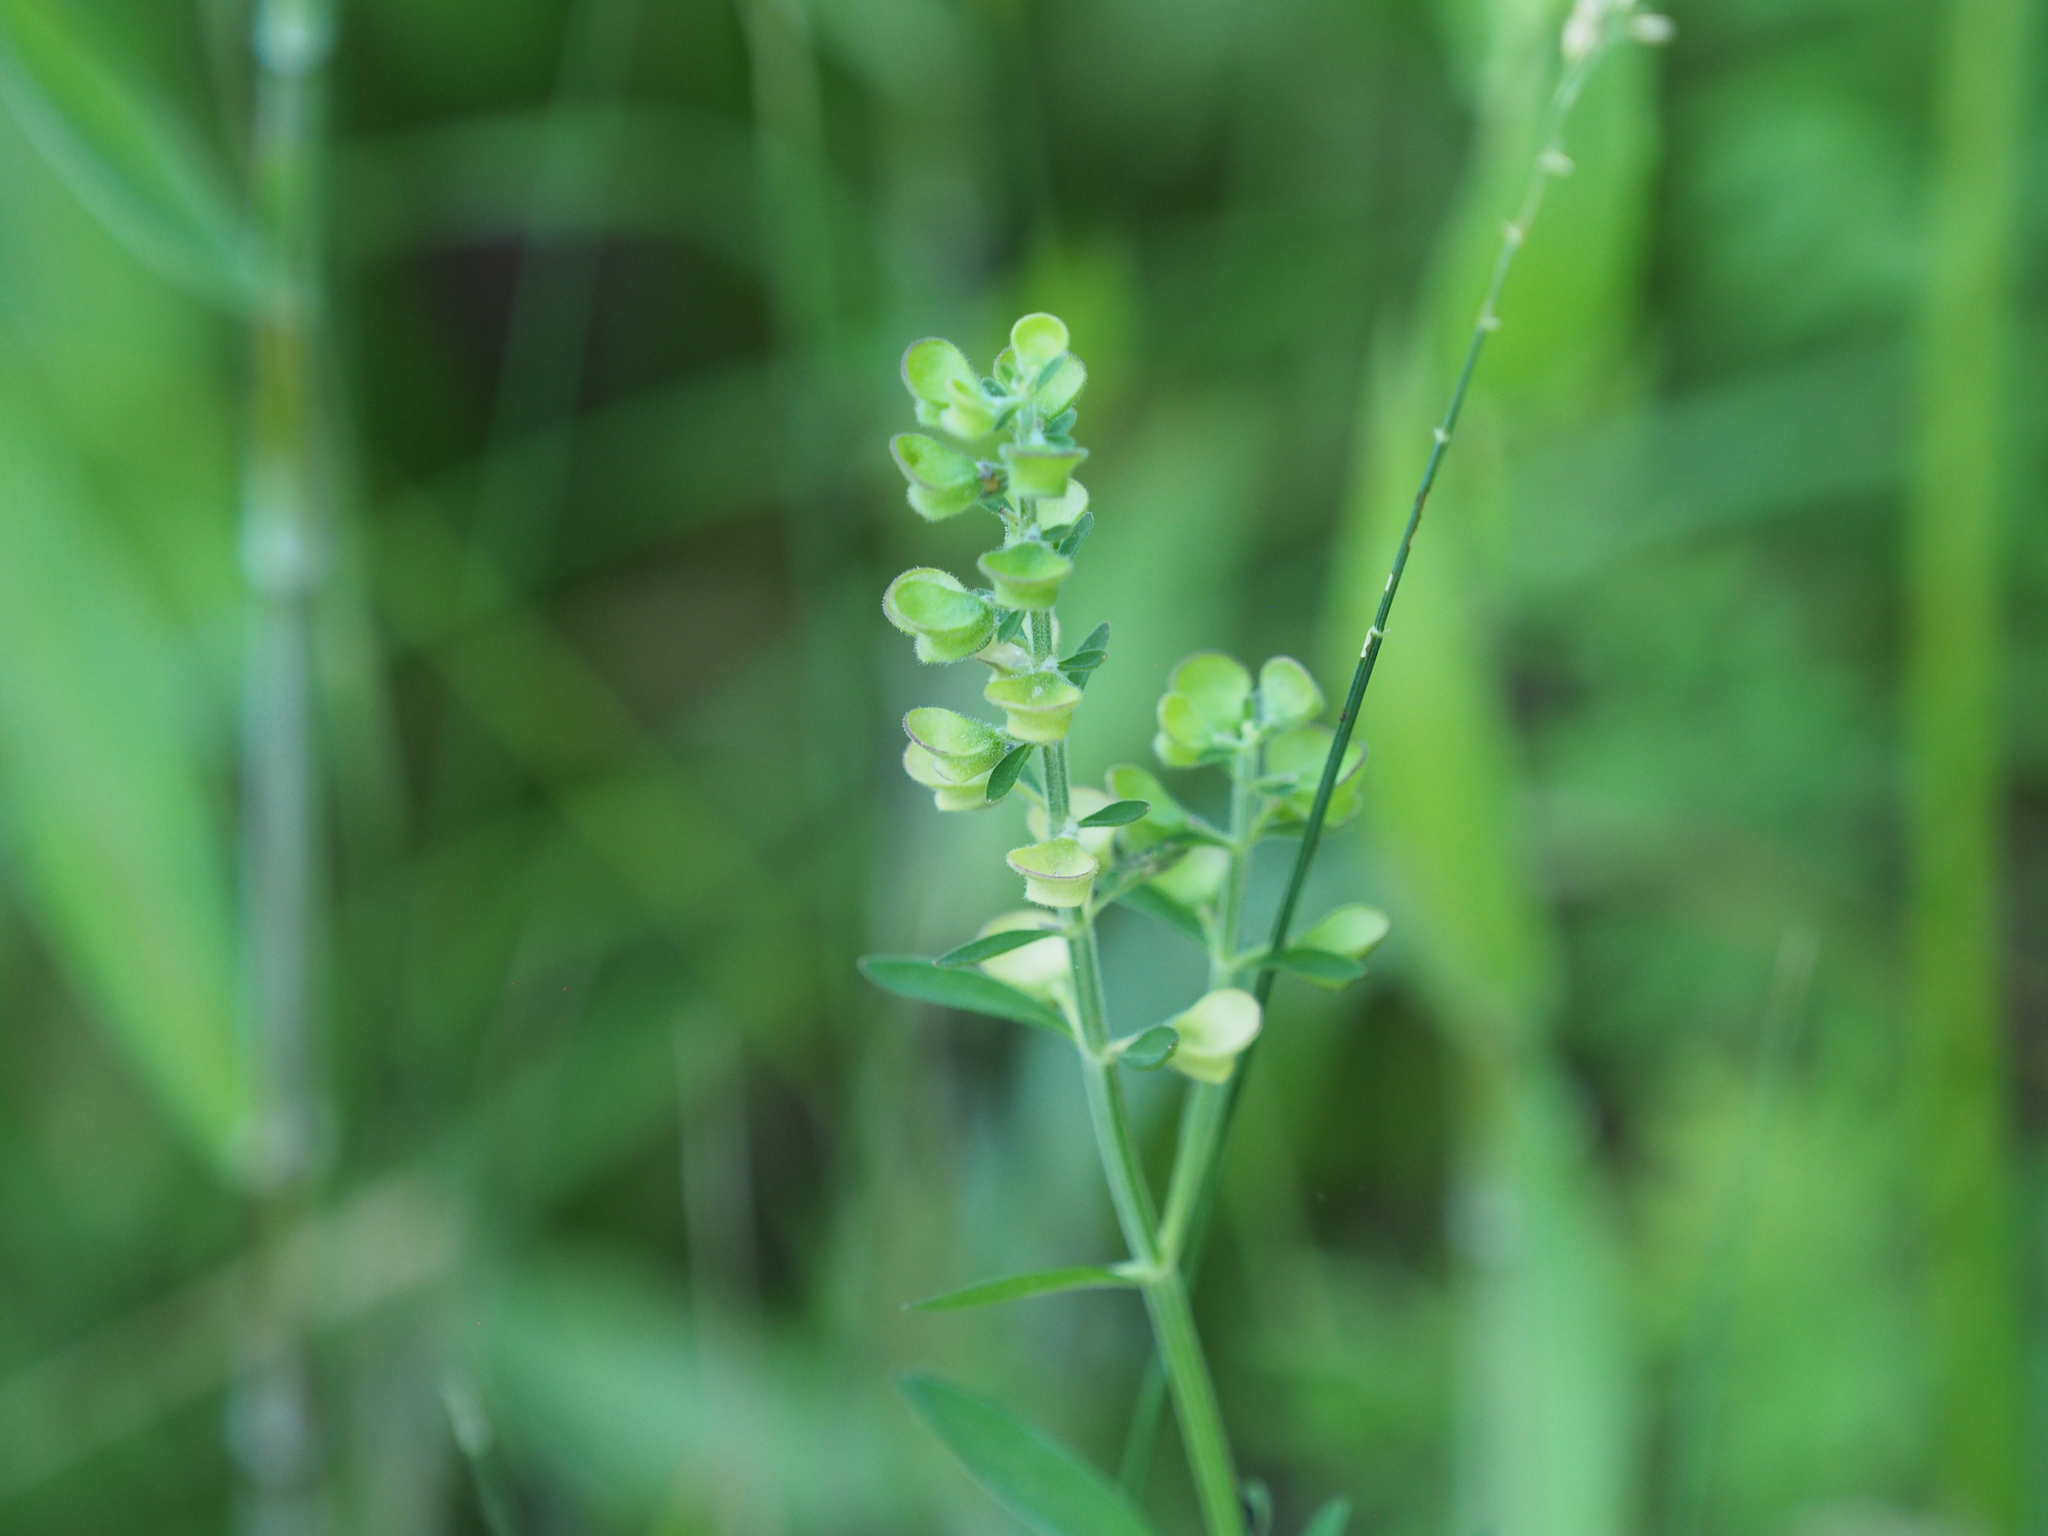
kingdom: Plantae
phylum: Tracheophyta
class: Magnoliopsida
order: Lamiales
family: Lamiaceae
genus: Scutellaria
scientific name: Scutellaria integrifolia
